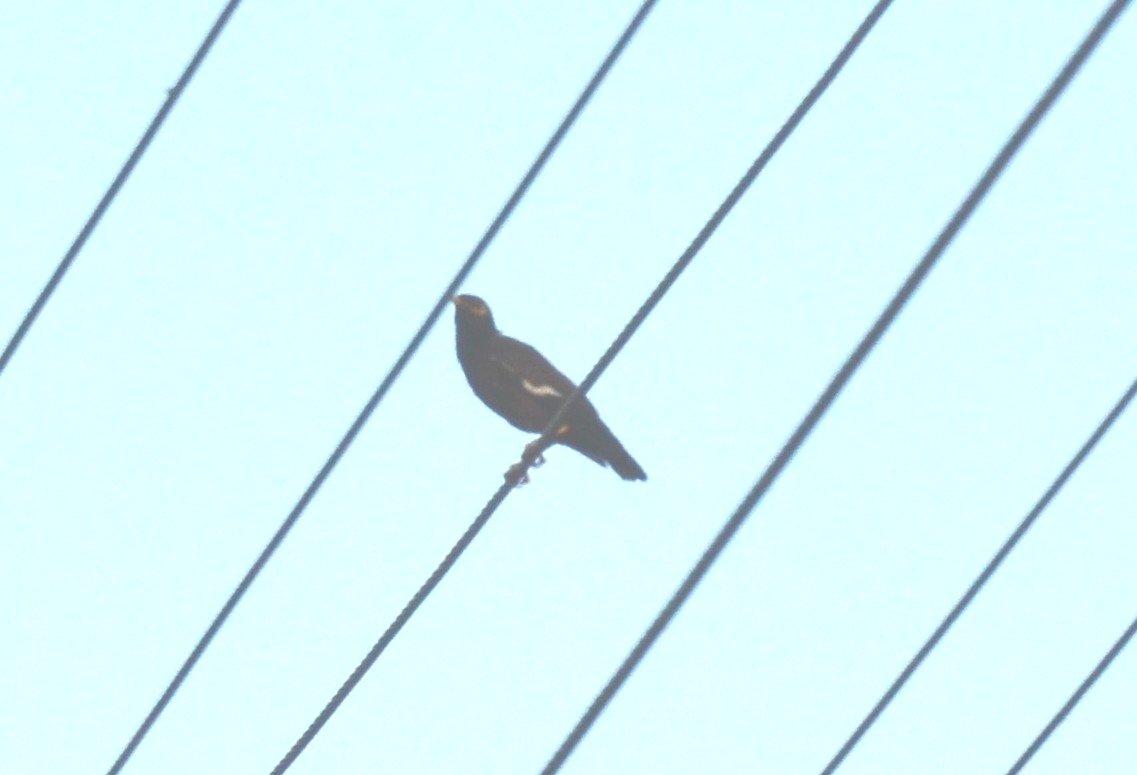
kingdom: Animalia
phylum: Chordata
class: Aves
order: Passeriformes
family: Sturnidae
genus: Acridotheres
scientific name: Acridotheres tristis
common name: Common myna
